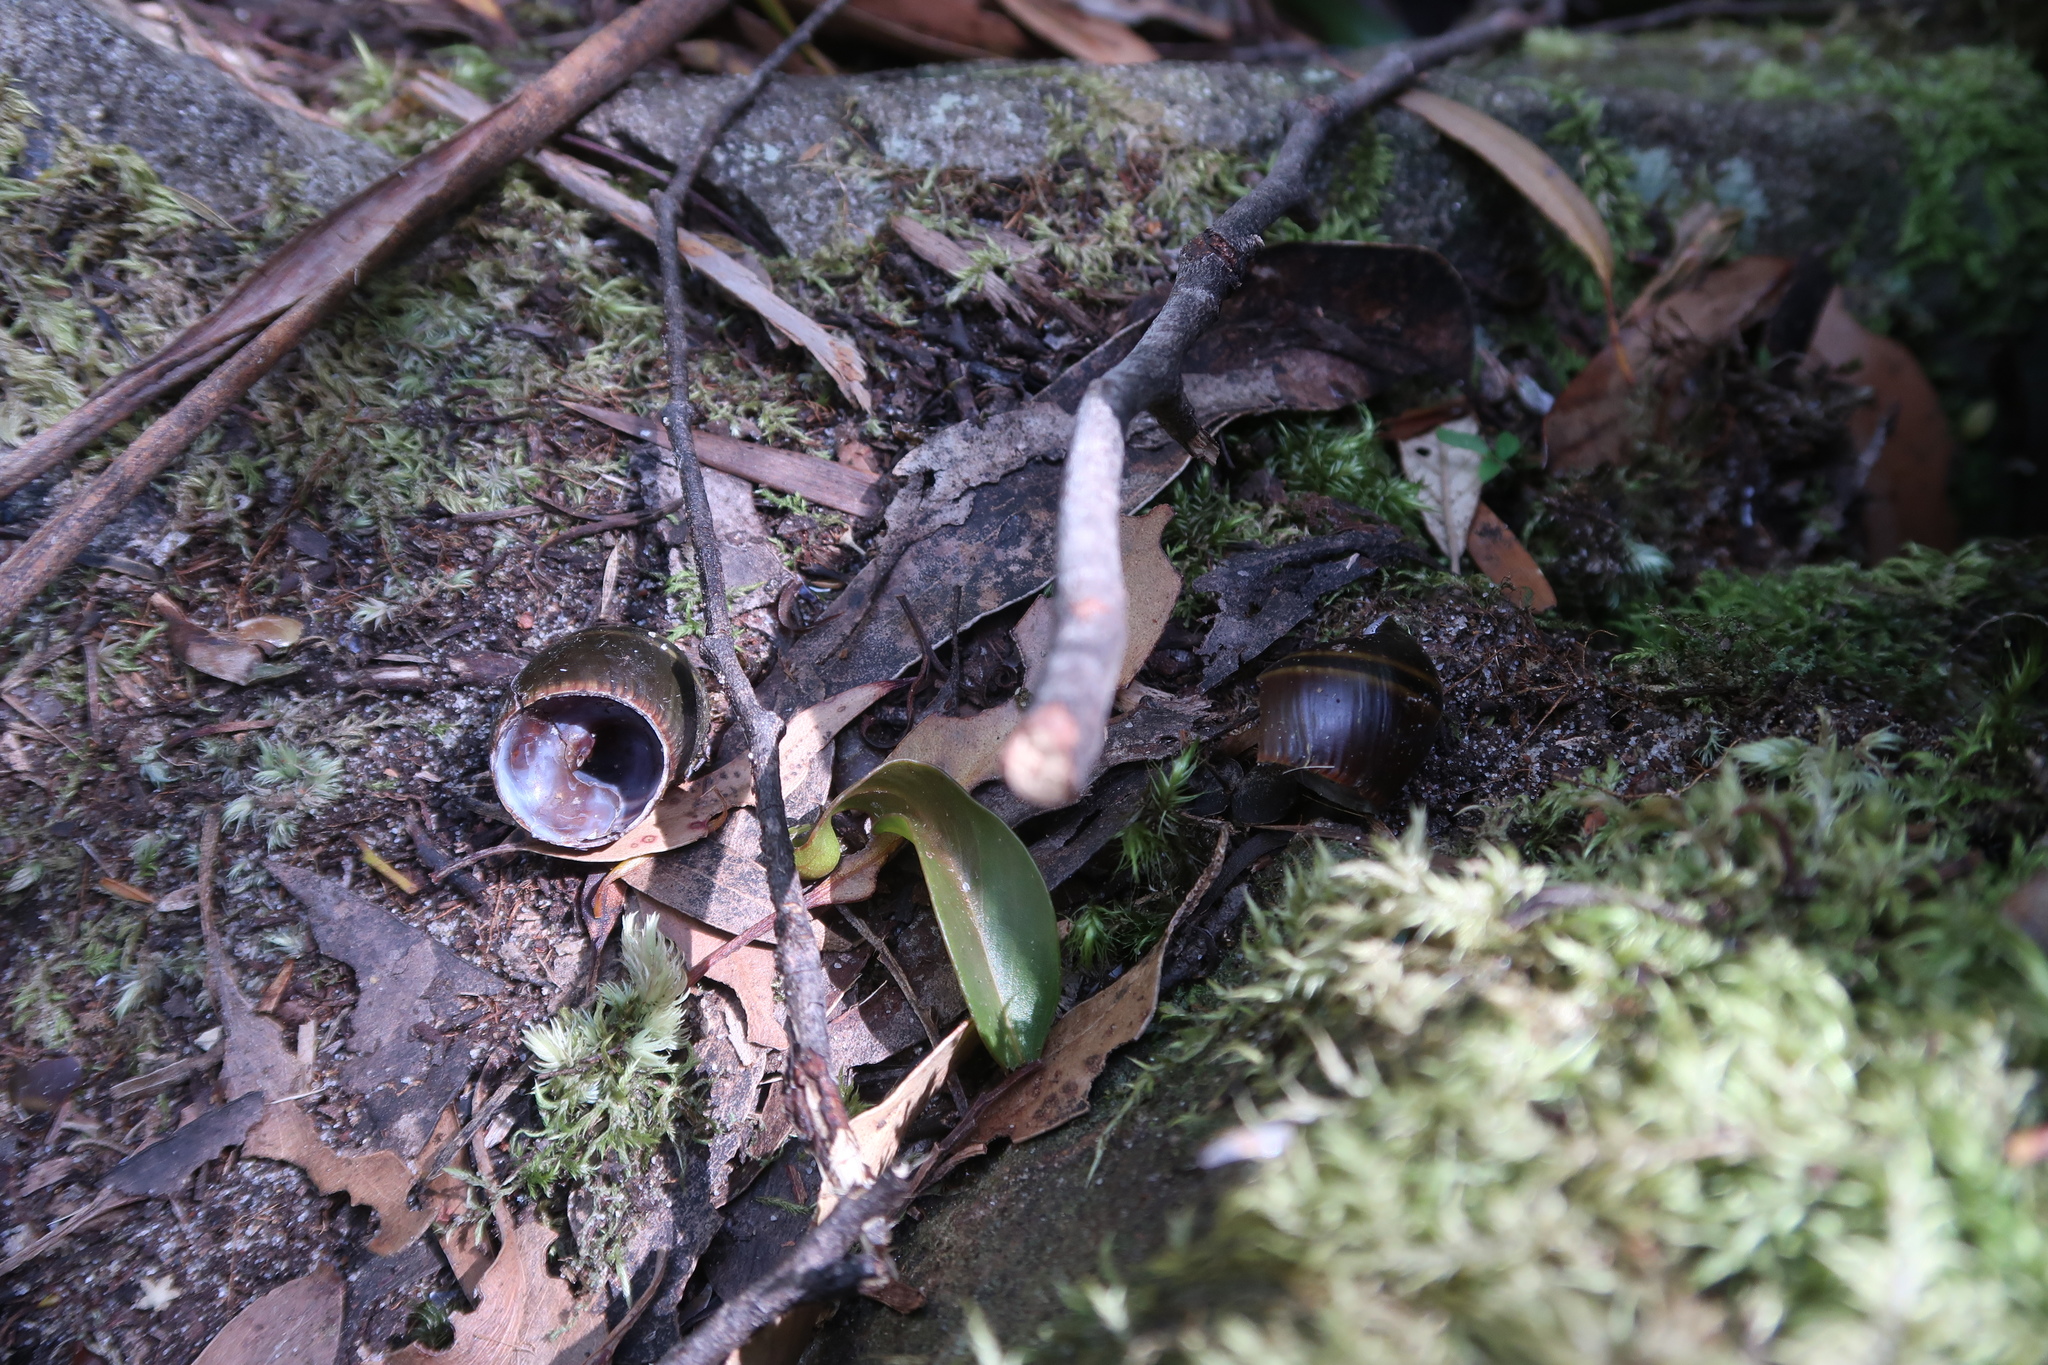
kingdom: Animalia
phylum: Mollusca
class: Gastropoda
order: Stylommatophora
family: Caryodidae
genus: Caryodes
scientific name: Caryodes dufresnii
